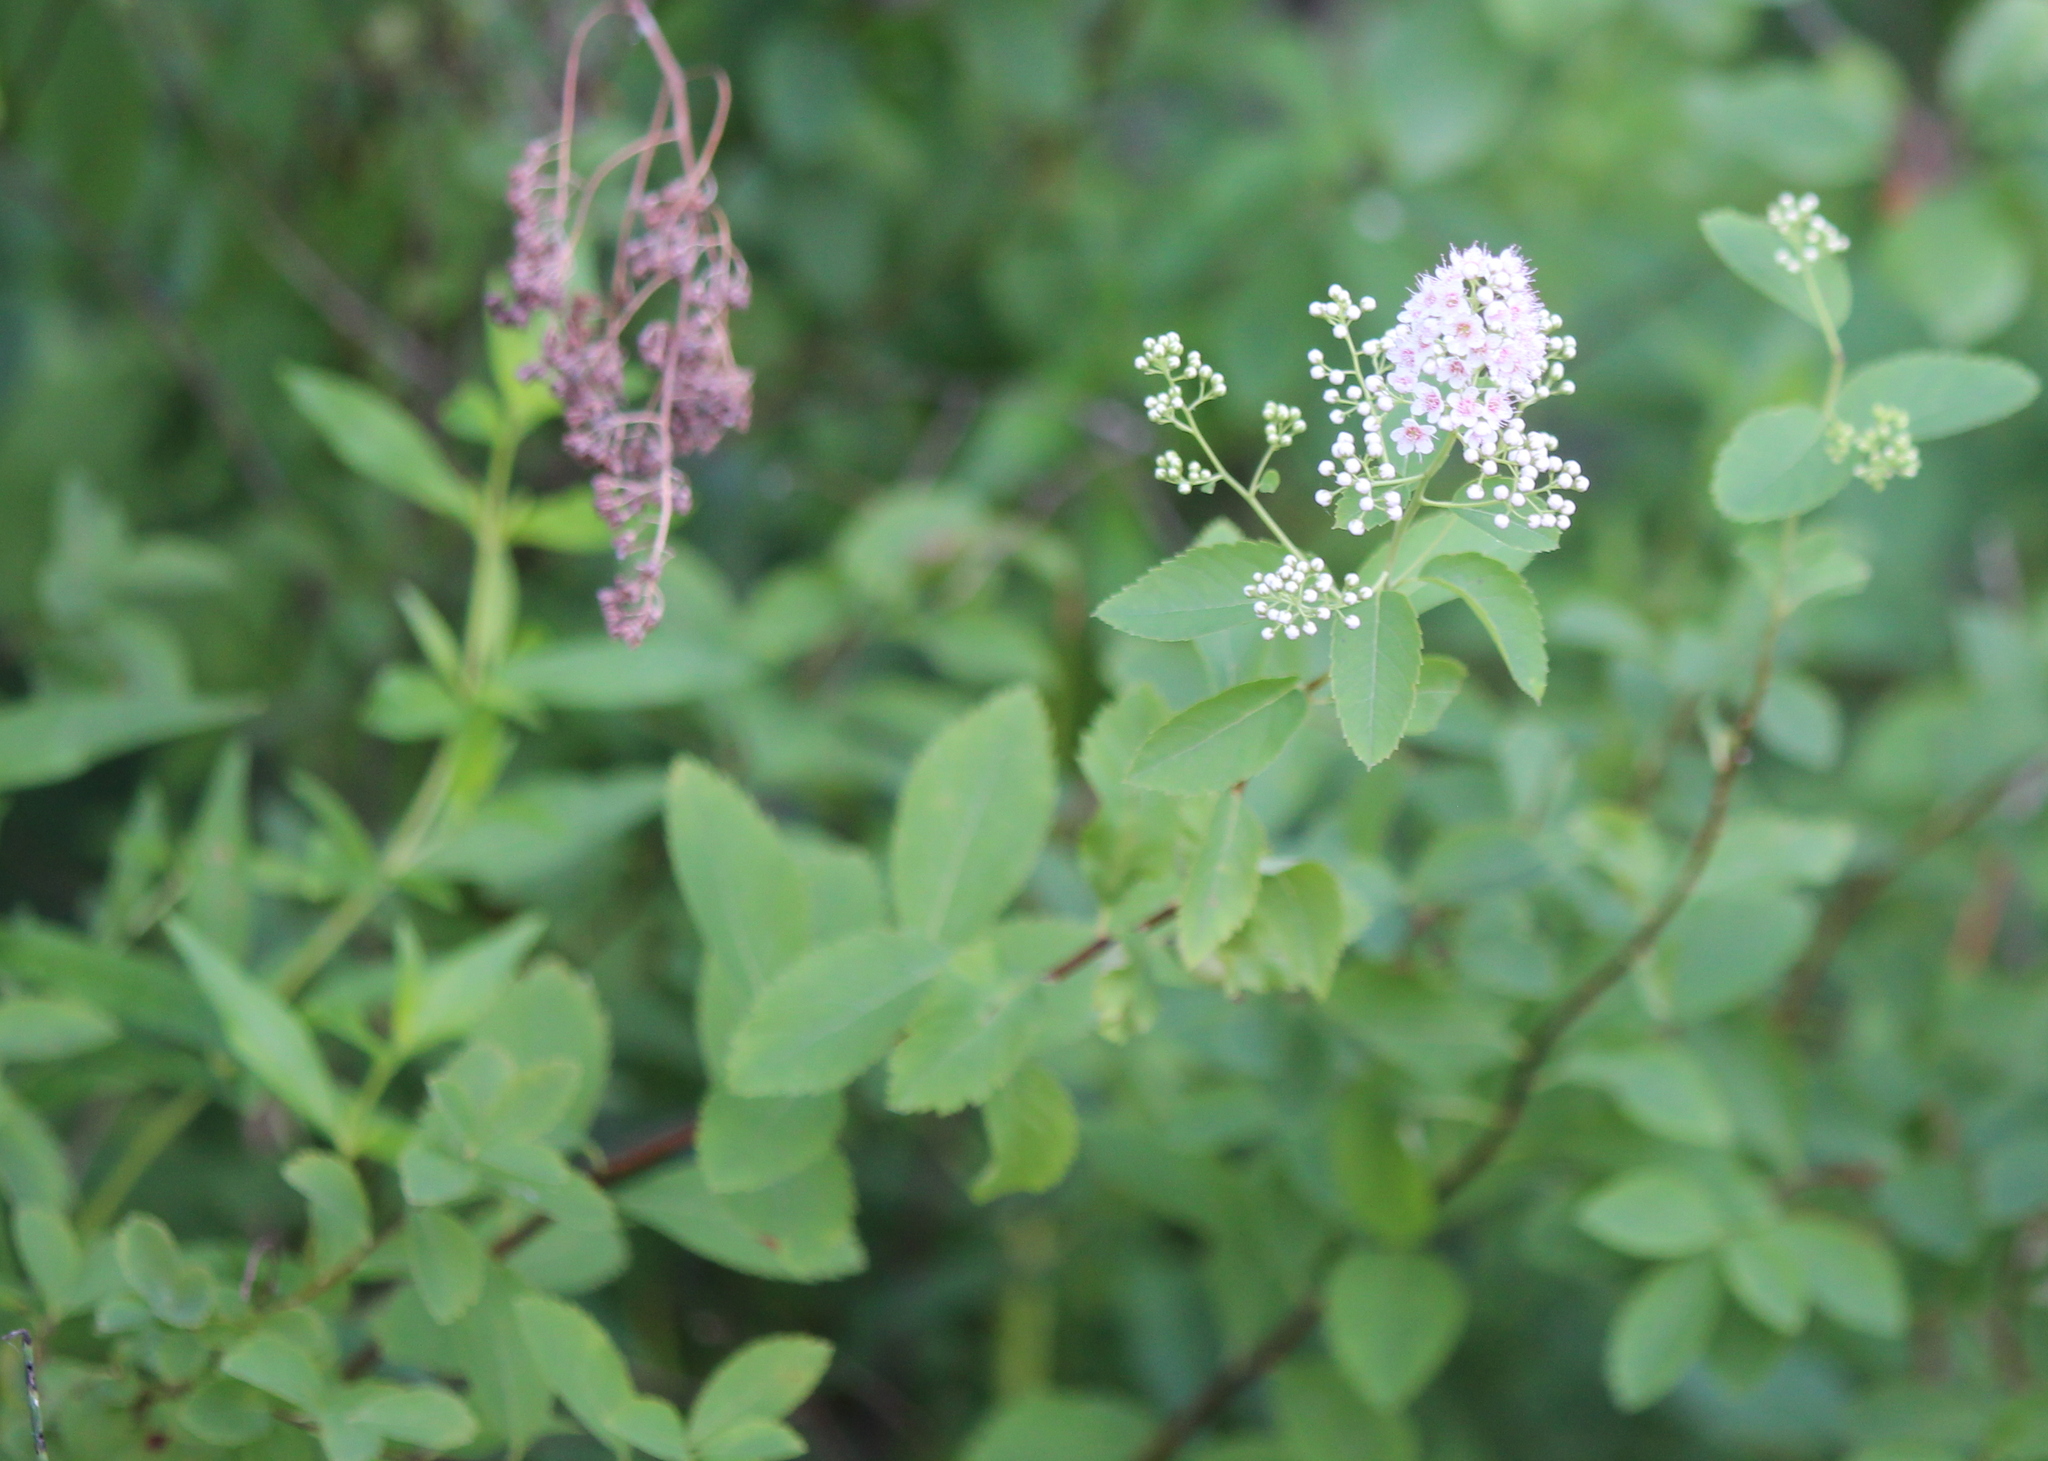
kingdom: Plantae
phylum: Tracheophyta
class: Magnoliopsida
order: Rosales
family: Rosaceae
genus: Spiraea
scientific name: Spiraea alba
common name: Pale bridewort
